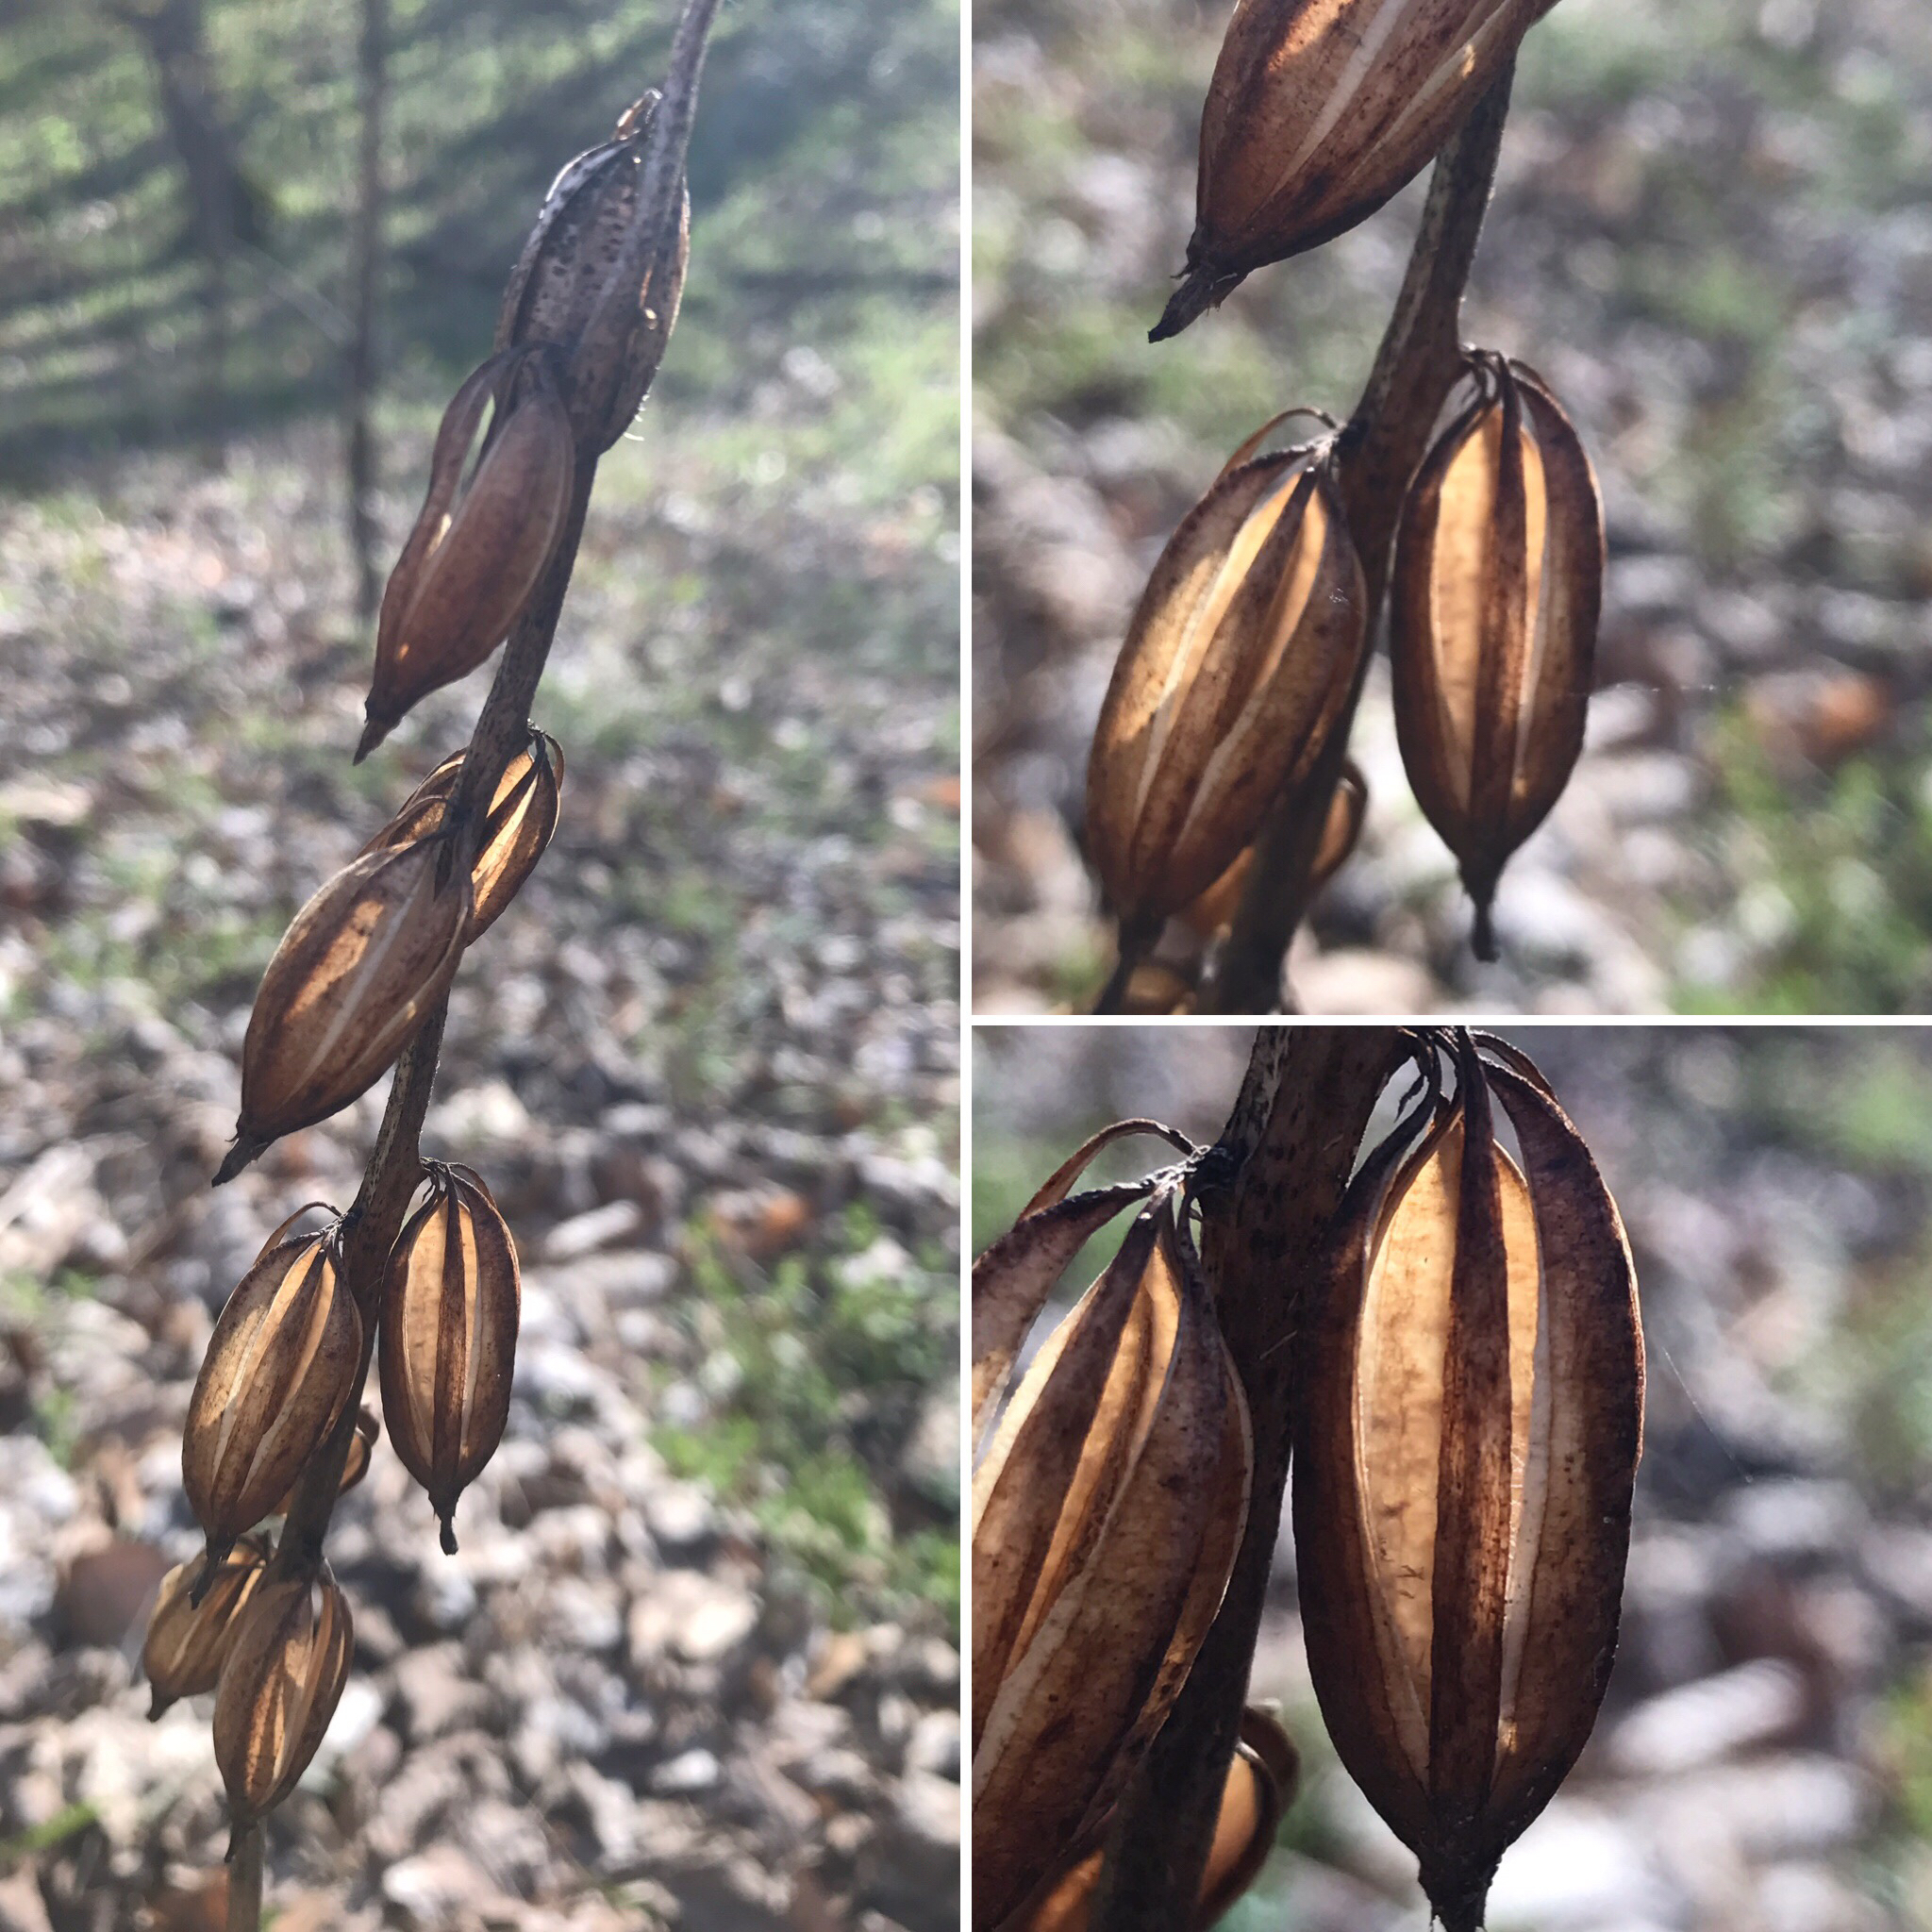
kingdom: Plantae
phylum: Tracheophyta
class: Liliopsida
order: Asparagales
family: Orchidaceae
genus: Aplectrum
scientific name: Aplectrum hyemale
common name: Adam-and-eve
